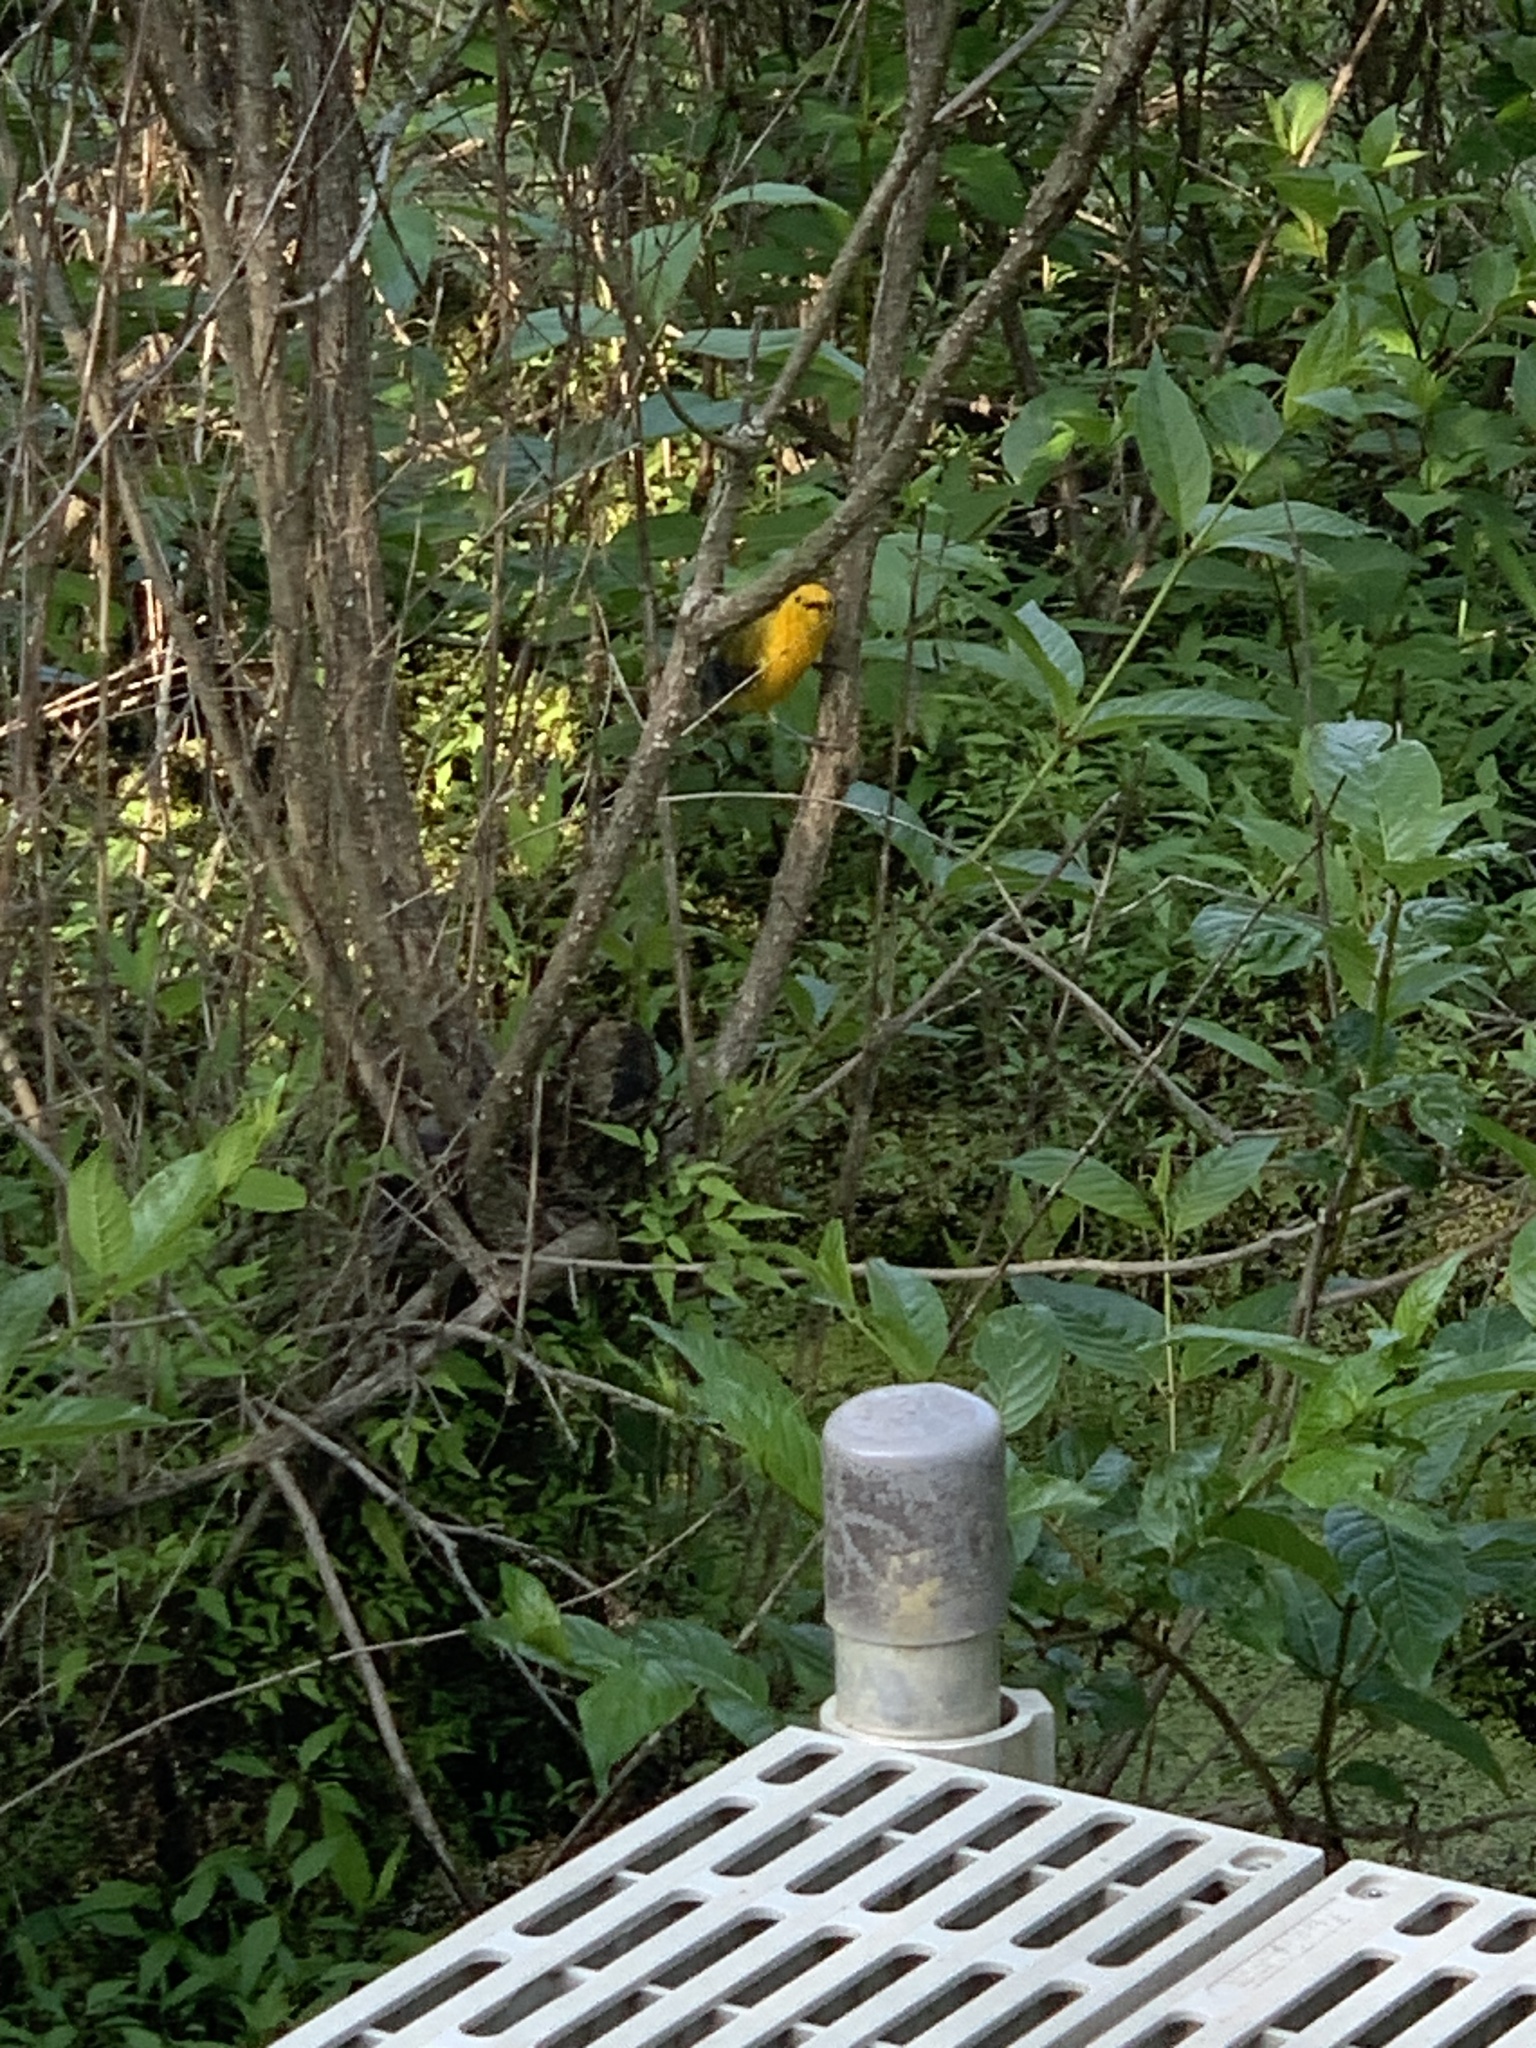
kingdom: Animalia
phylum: Chordata
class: Aves
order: Passeriformes
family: Parulidae
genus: Protonotaria
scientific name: Protonotaria citrea
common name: Prothonotary warbler
